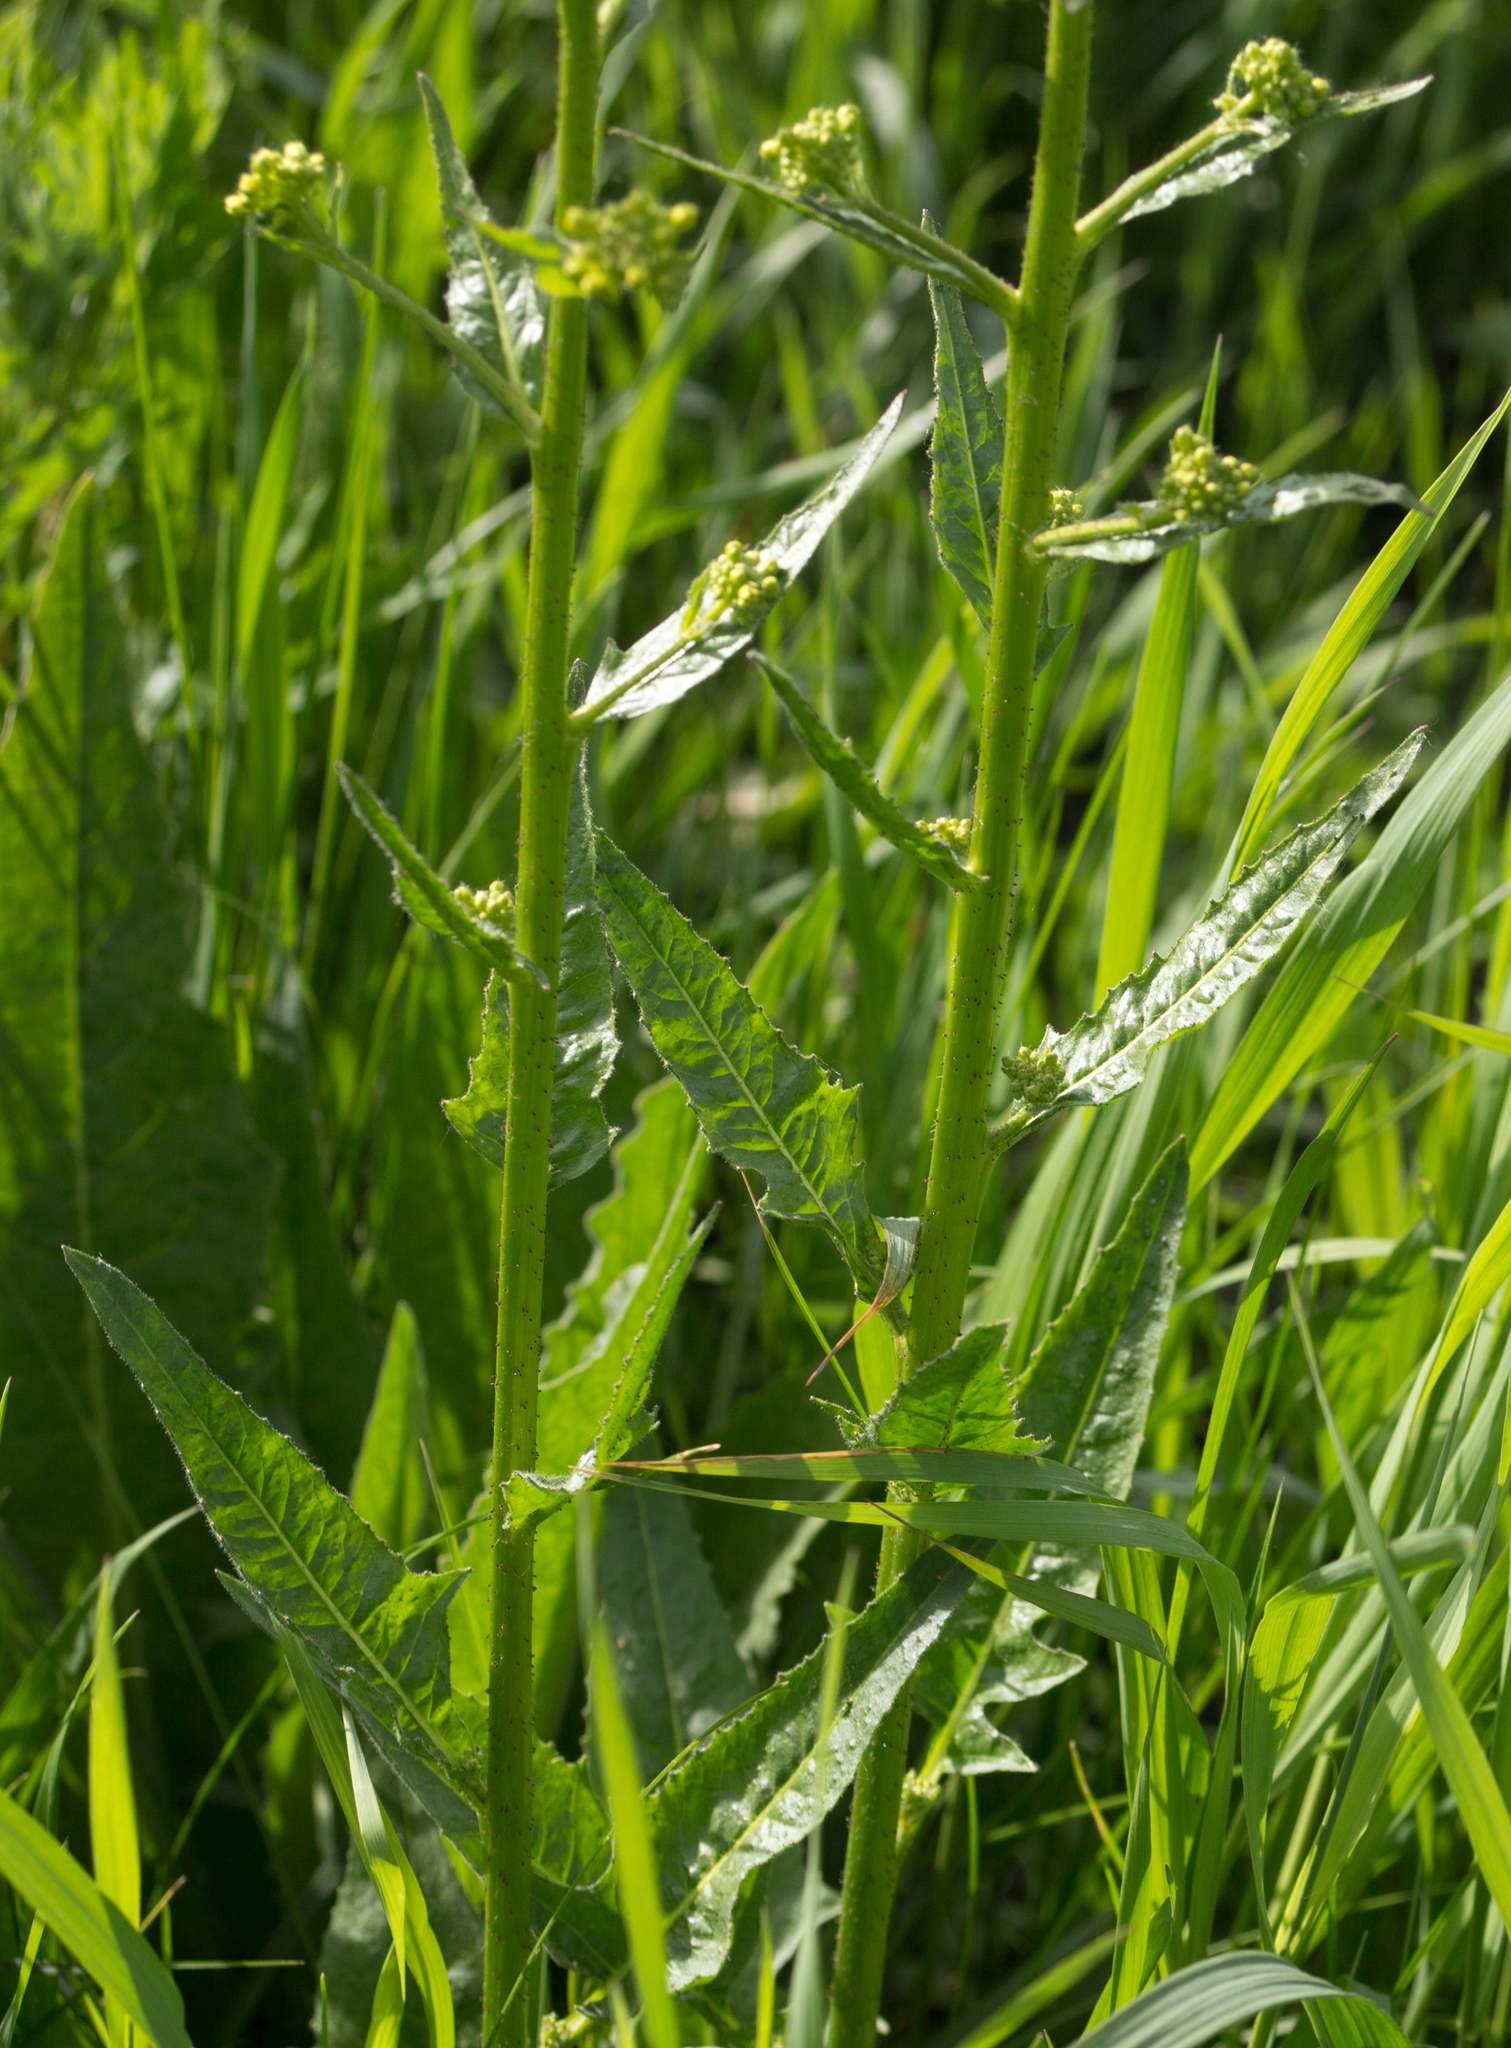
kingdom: Plantae
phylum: Tracheophyta
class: Magnoliopsida
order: Brassicales
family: Brassicaceae
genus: Bunias
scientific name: Bunias orientalis
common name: Warty-cabbage
